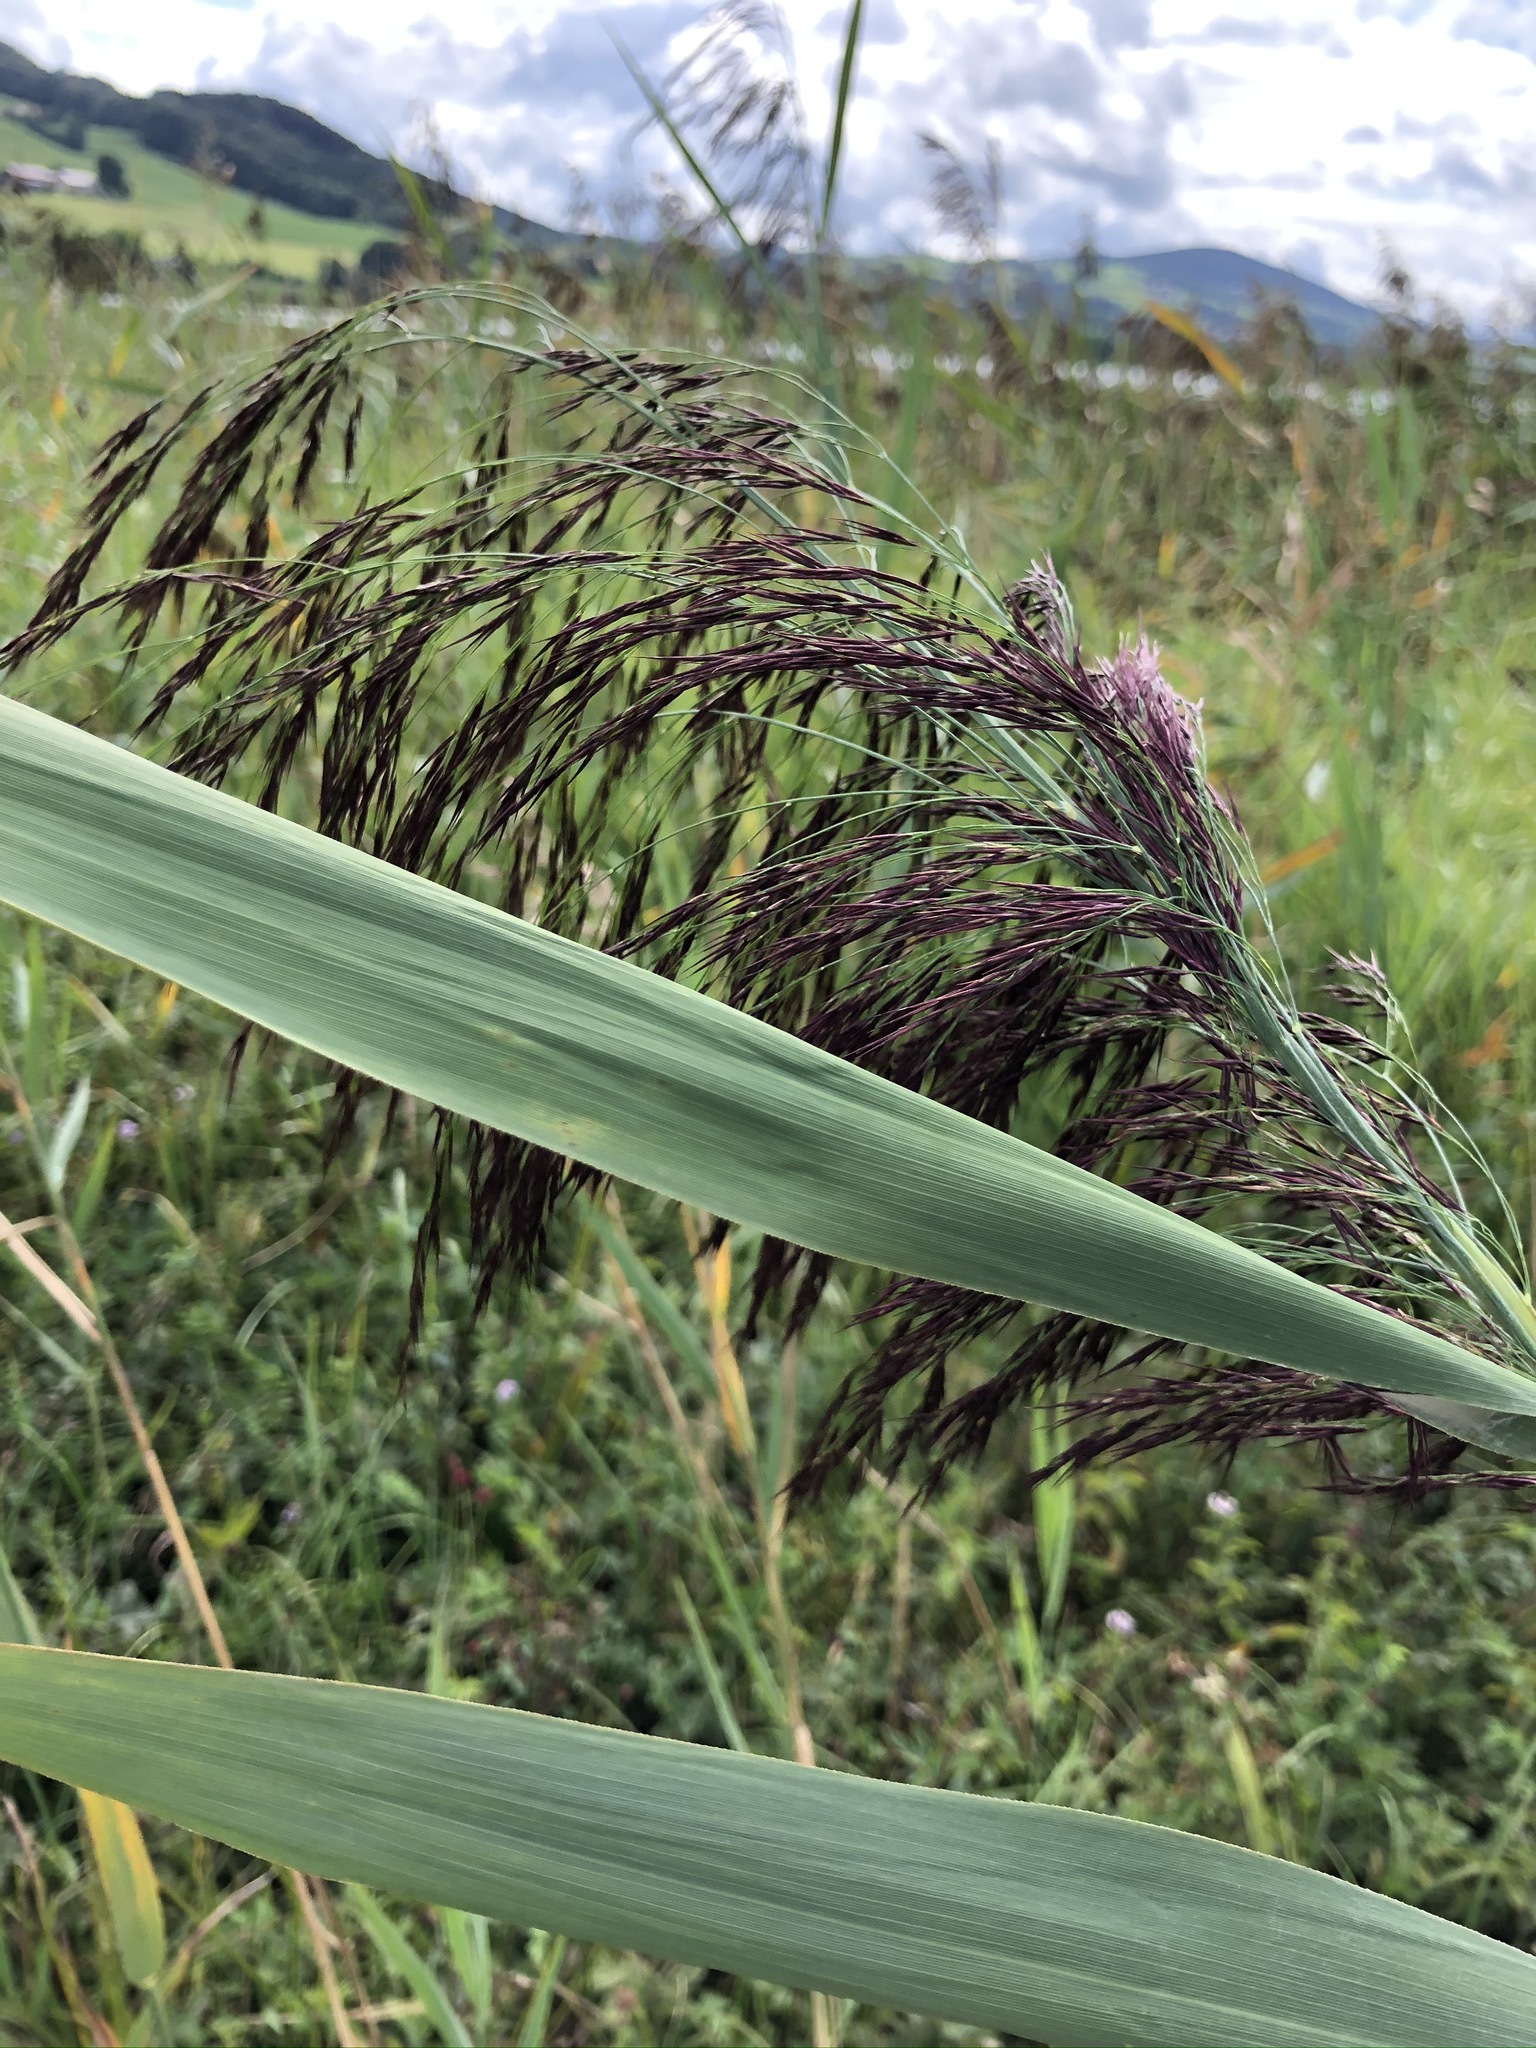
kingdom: Plantae
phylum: Tracheophyta
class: Liliopsida
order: Poales
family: Poaceae
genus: Phragmites
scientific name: Phragmites australis
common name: Common reed
